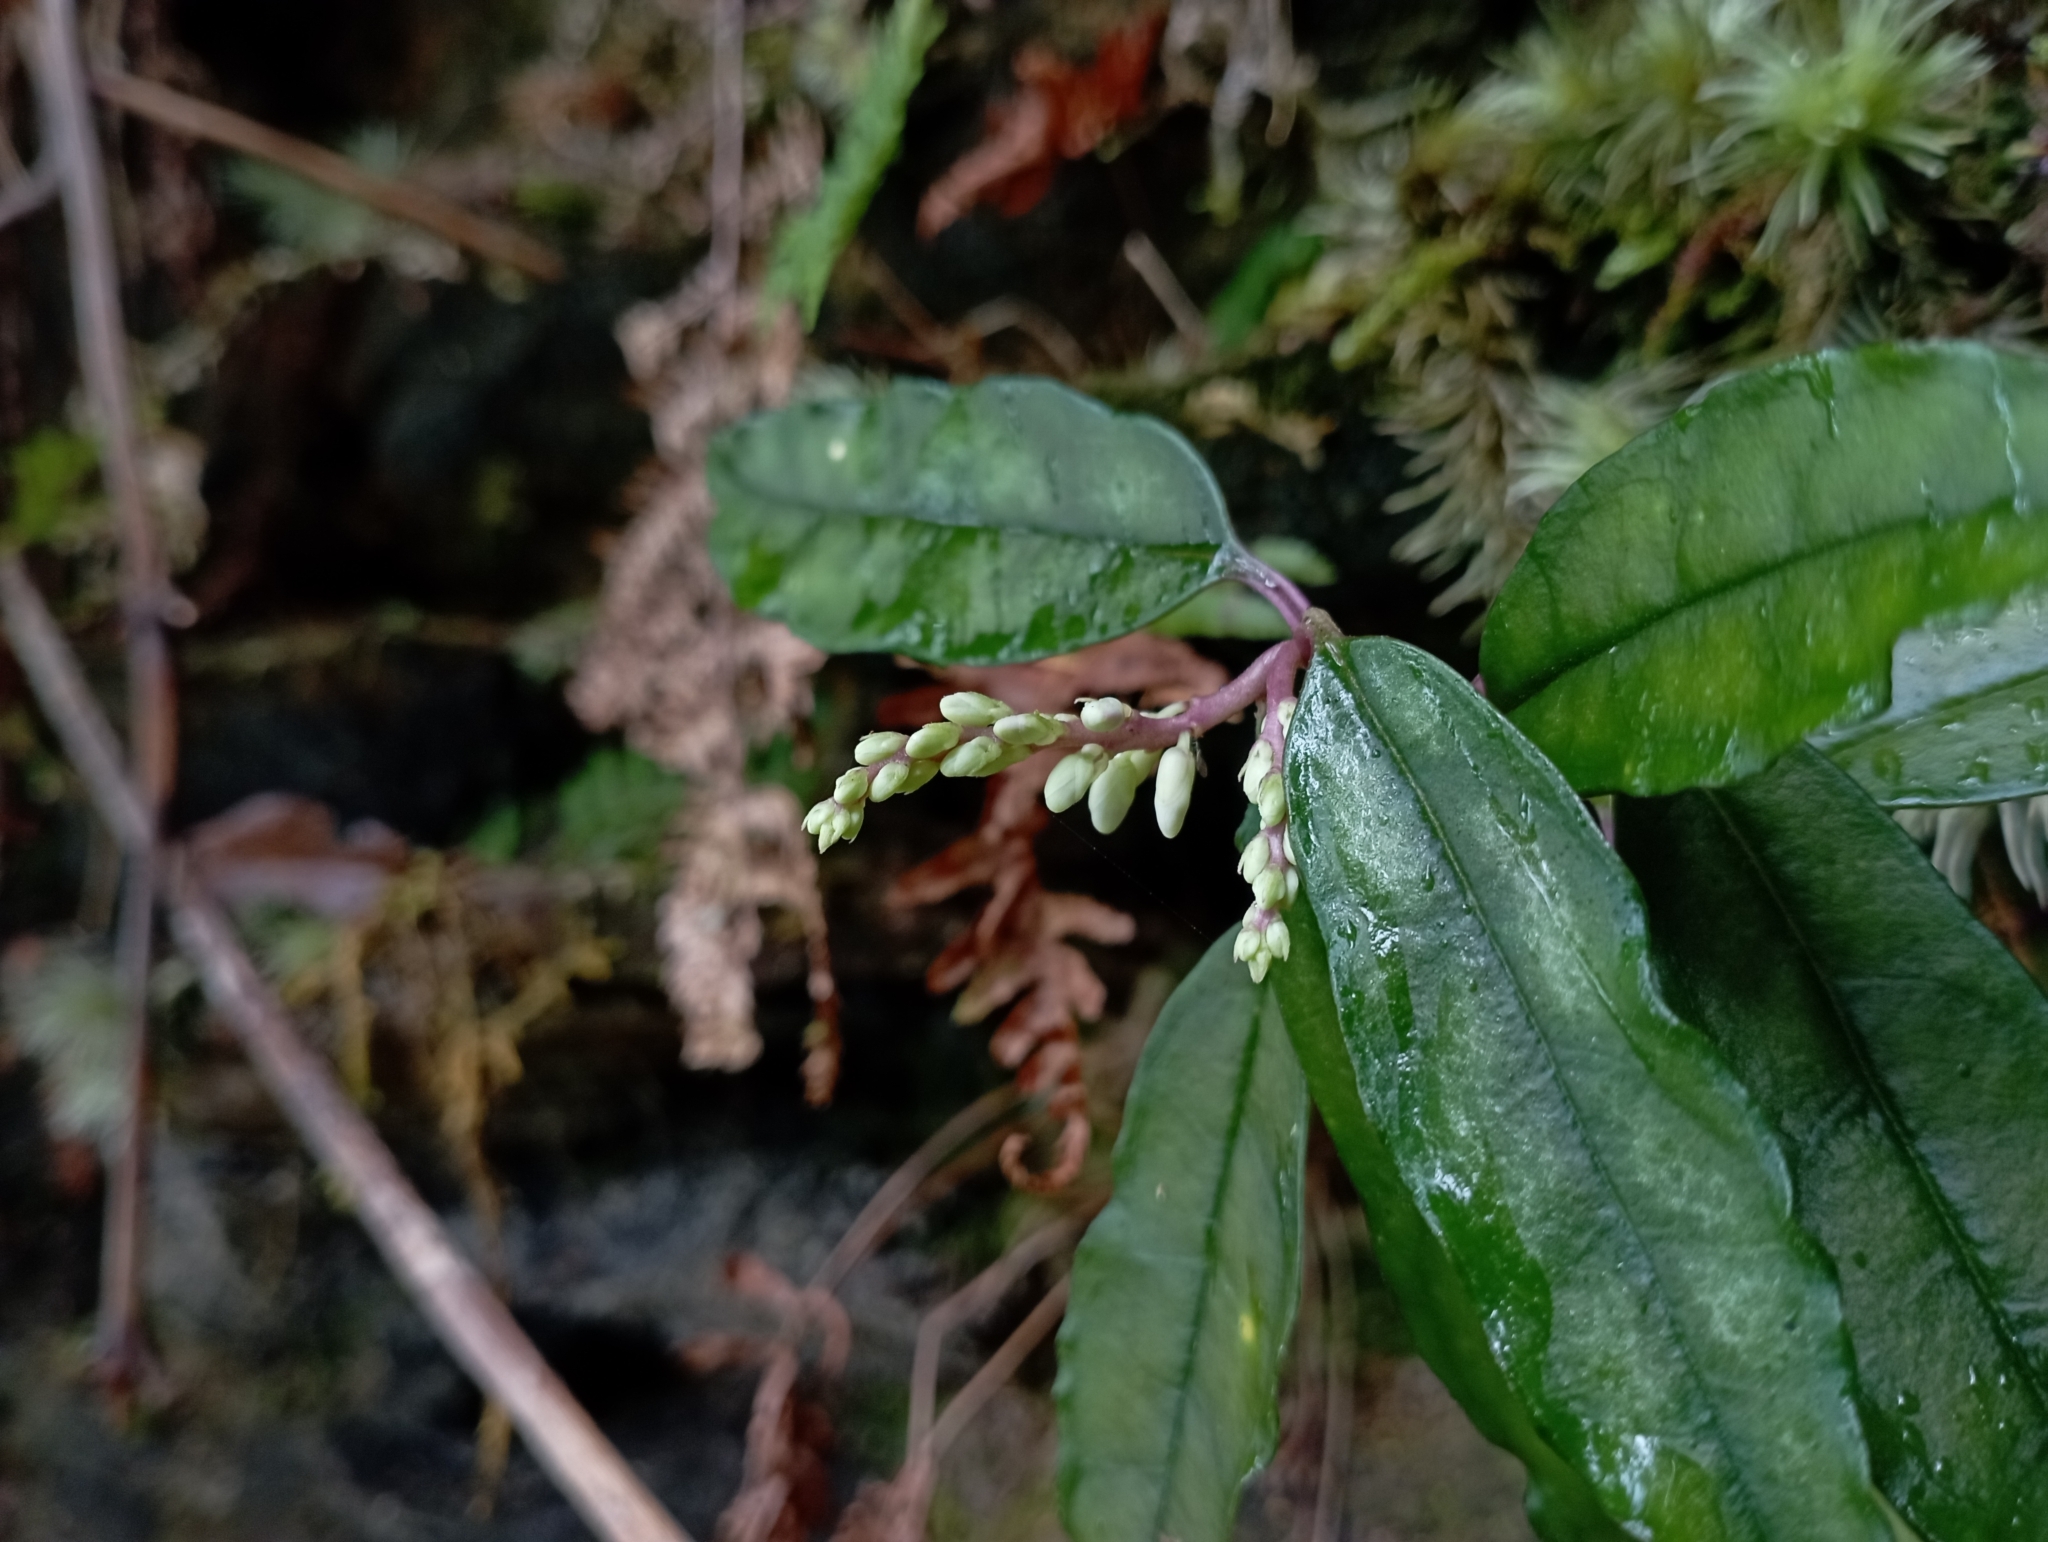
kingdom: Plantae
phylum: Tracheophyta
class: Magnoliopsida
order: Fabales
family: Polygalaceae
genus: Polygala
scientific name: Polygala arcuata
